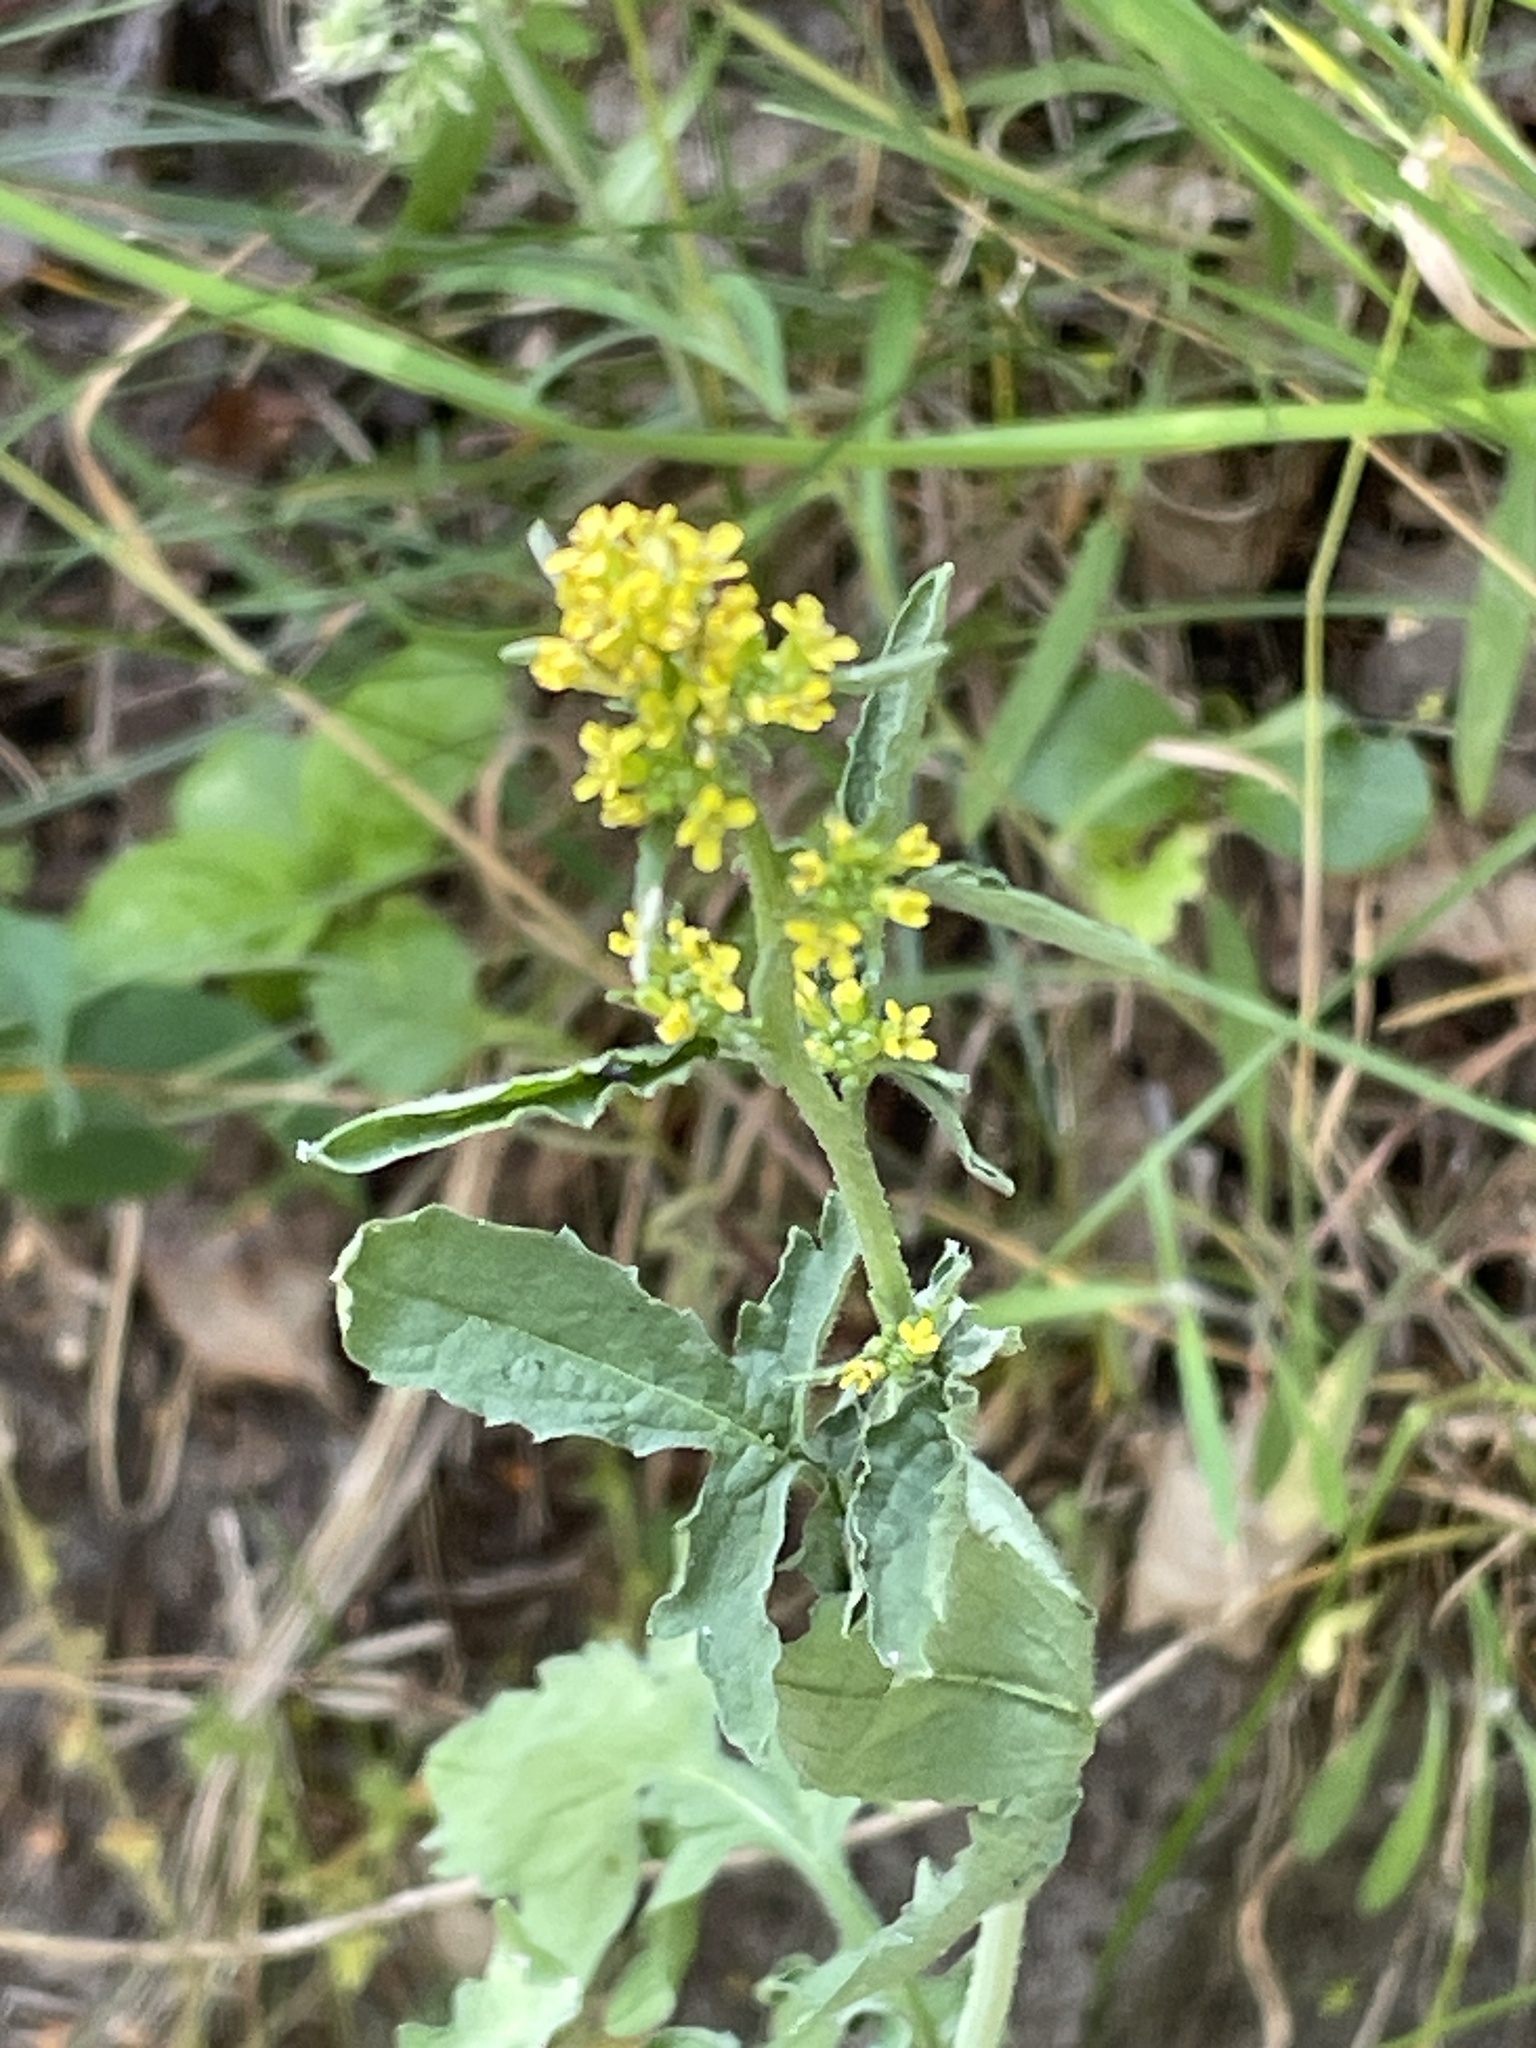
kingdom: Plantae
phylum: Tracheophyta
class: Magnoliopsida
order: Brassicales
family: Brassicaceae
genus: Sisymbrium
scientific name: Sisymbrium officinale
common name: Hedge mustard
